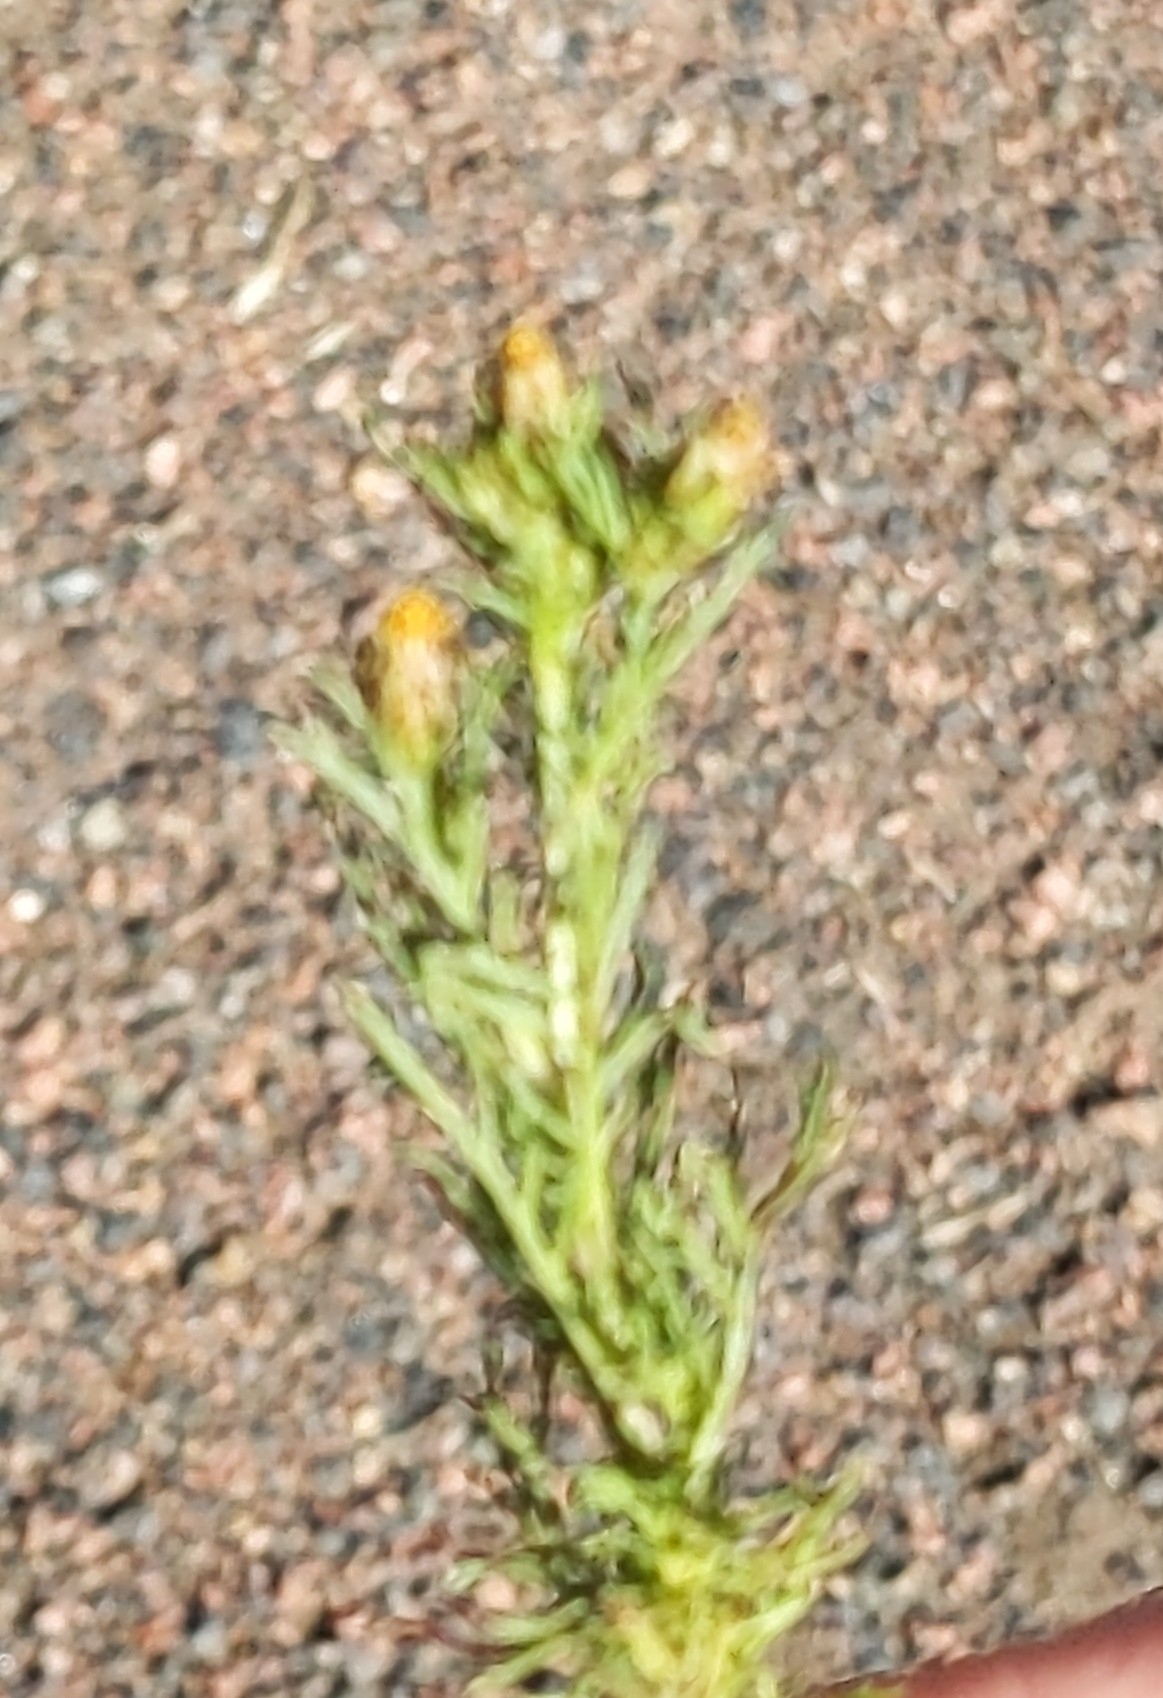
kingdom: Plantae
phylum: Tracheophyta
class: Magnoliopsida
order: Asterales
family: Asteraceae
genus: Dyssodia
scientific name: Dyssodia papposa
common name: Dogweed
